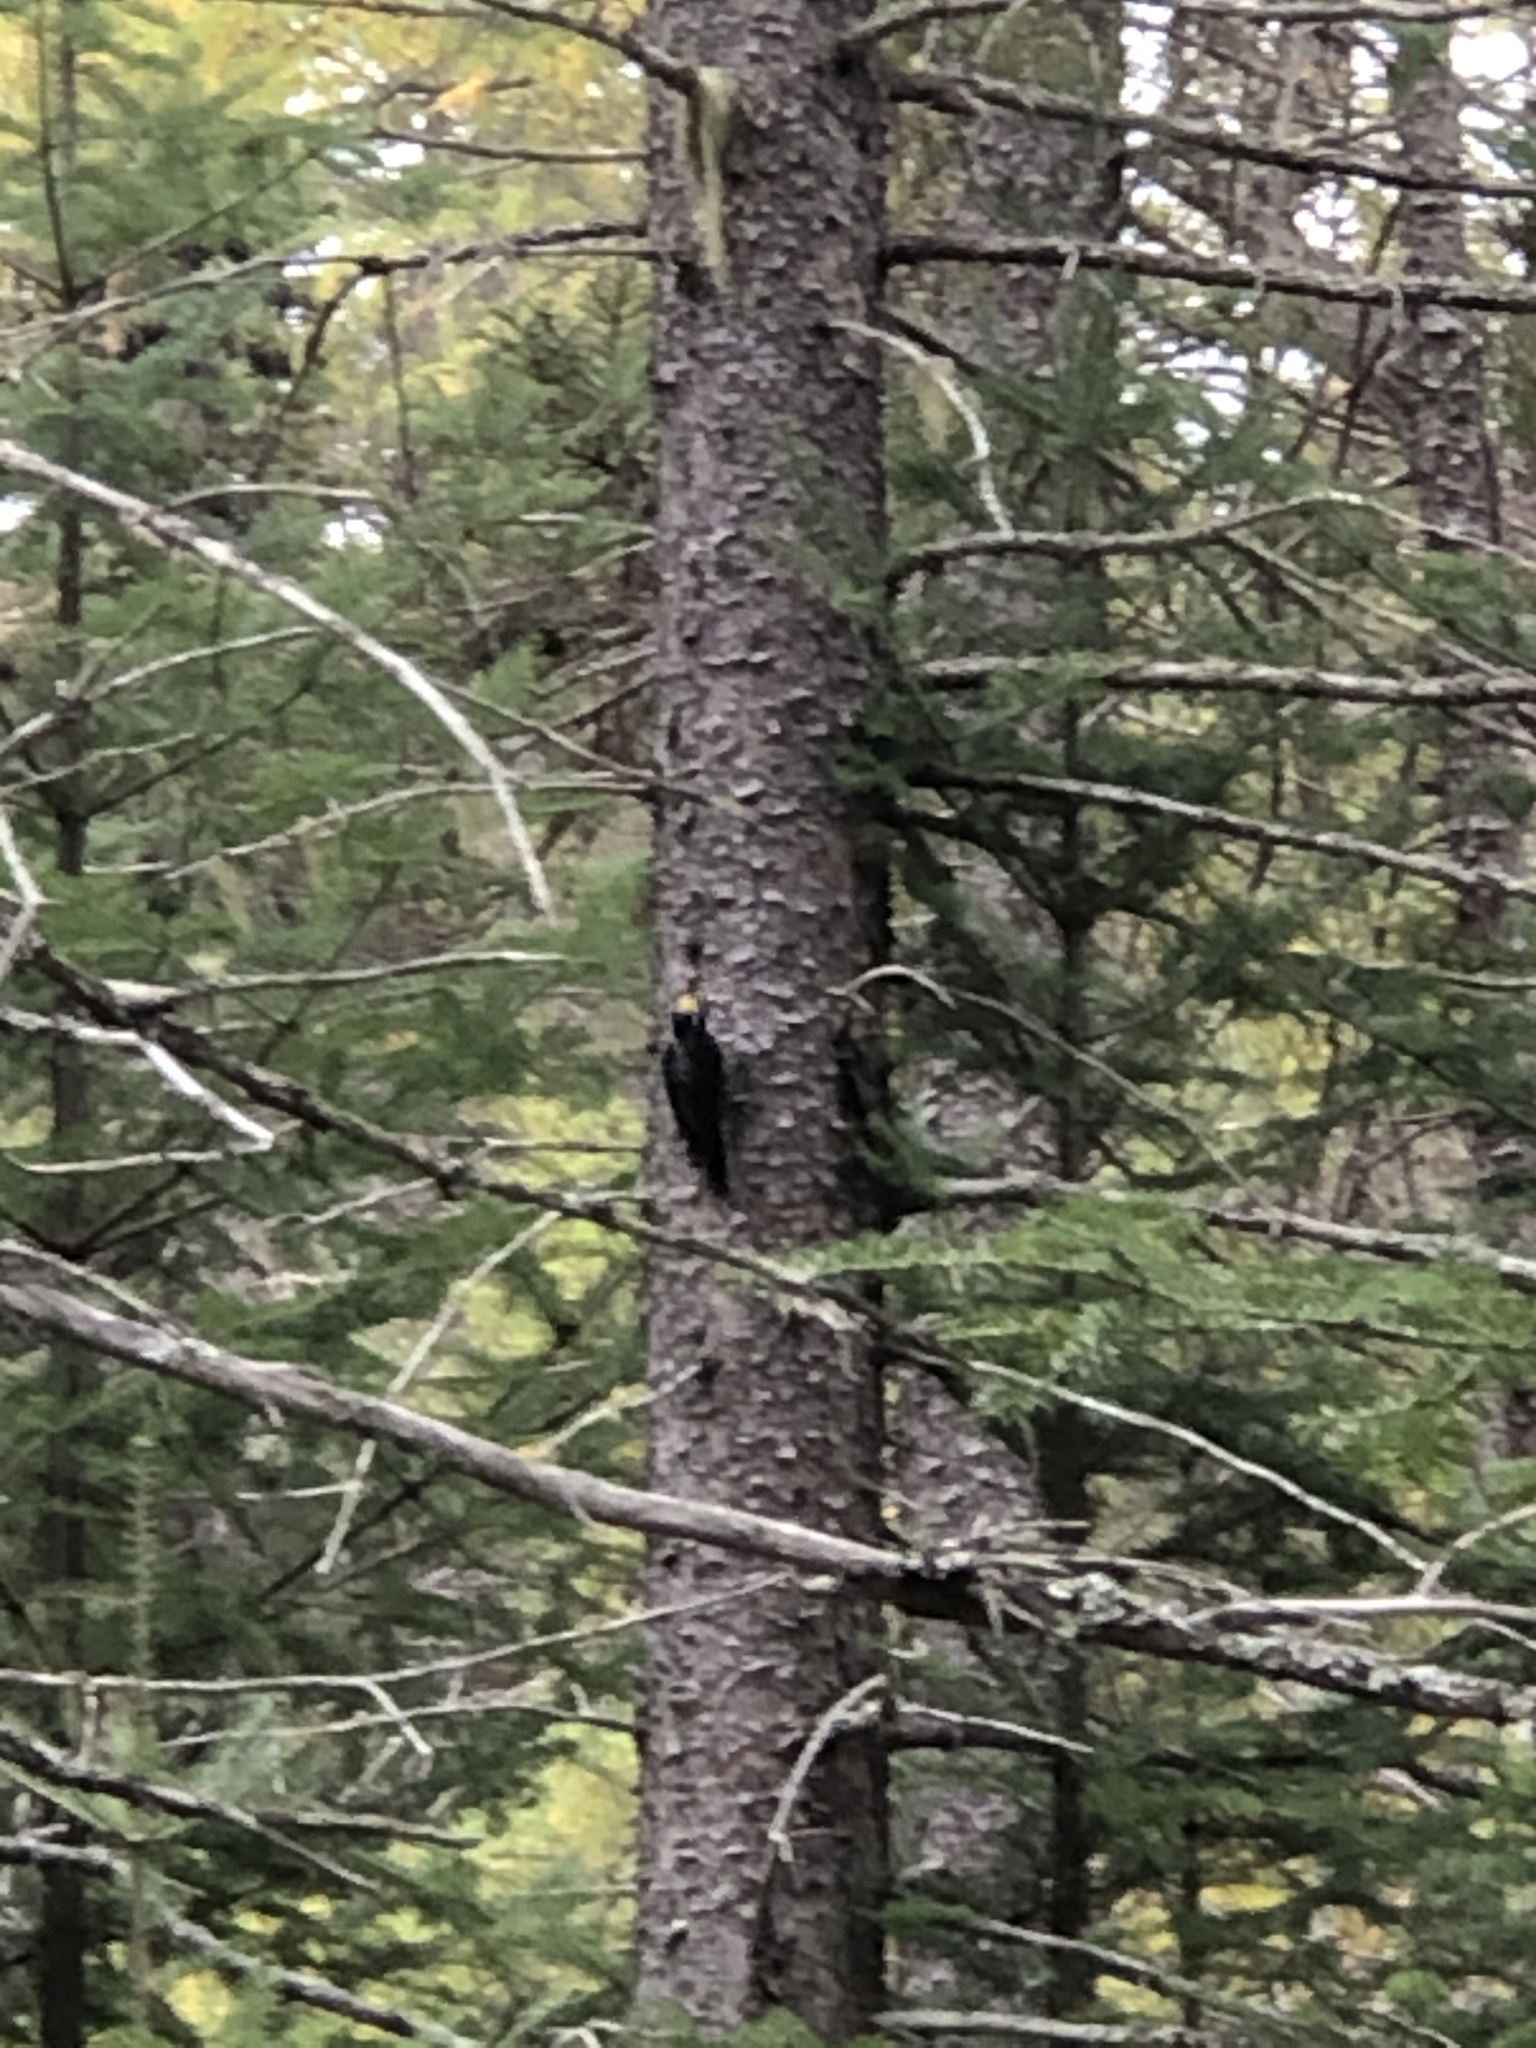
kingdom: Animalia
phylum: Chordata
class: Aves
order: Piciformes
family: Picidae
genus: Picoides
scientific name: Picoides arcticus
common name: Black-backed woodpecker
